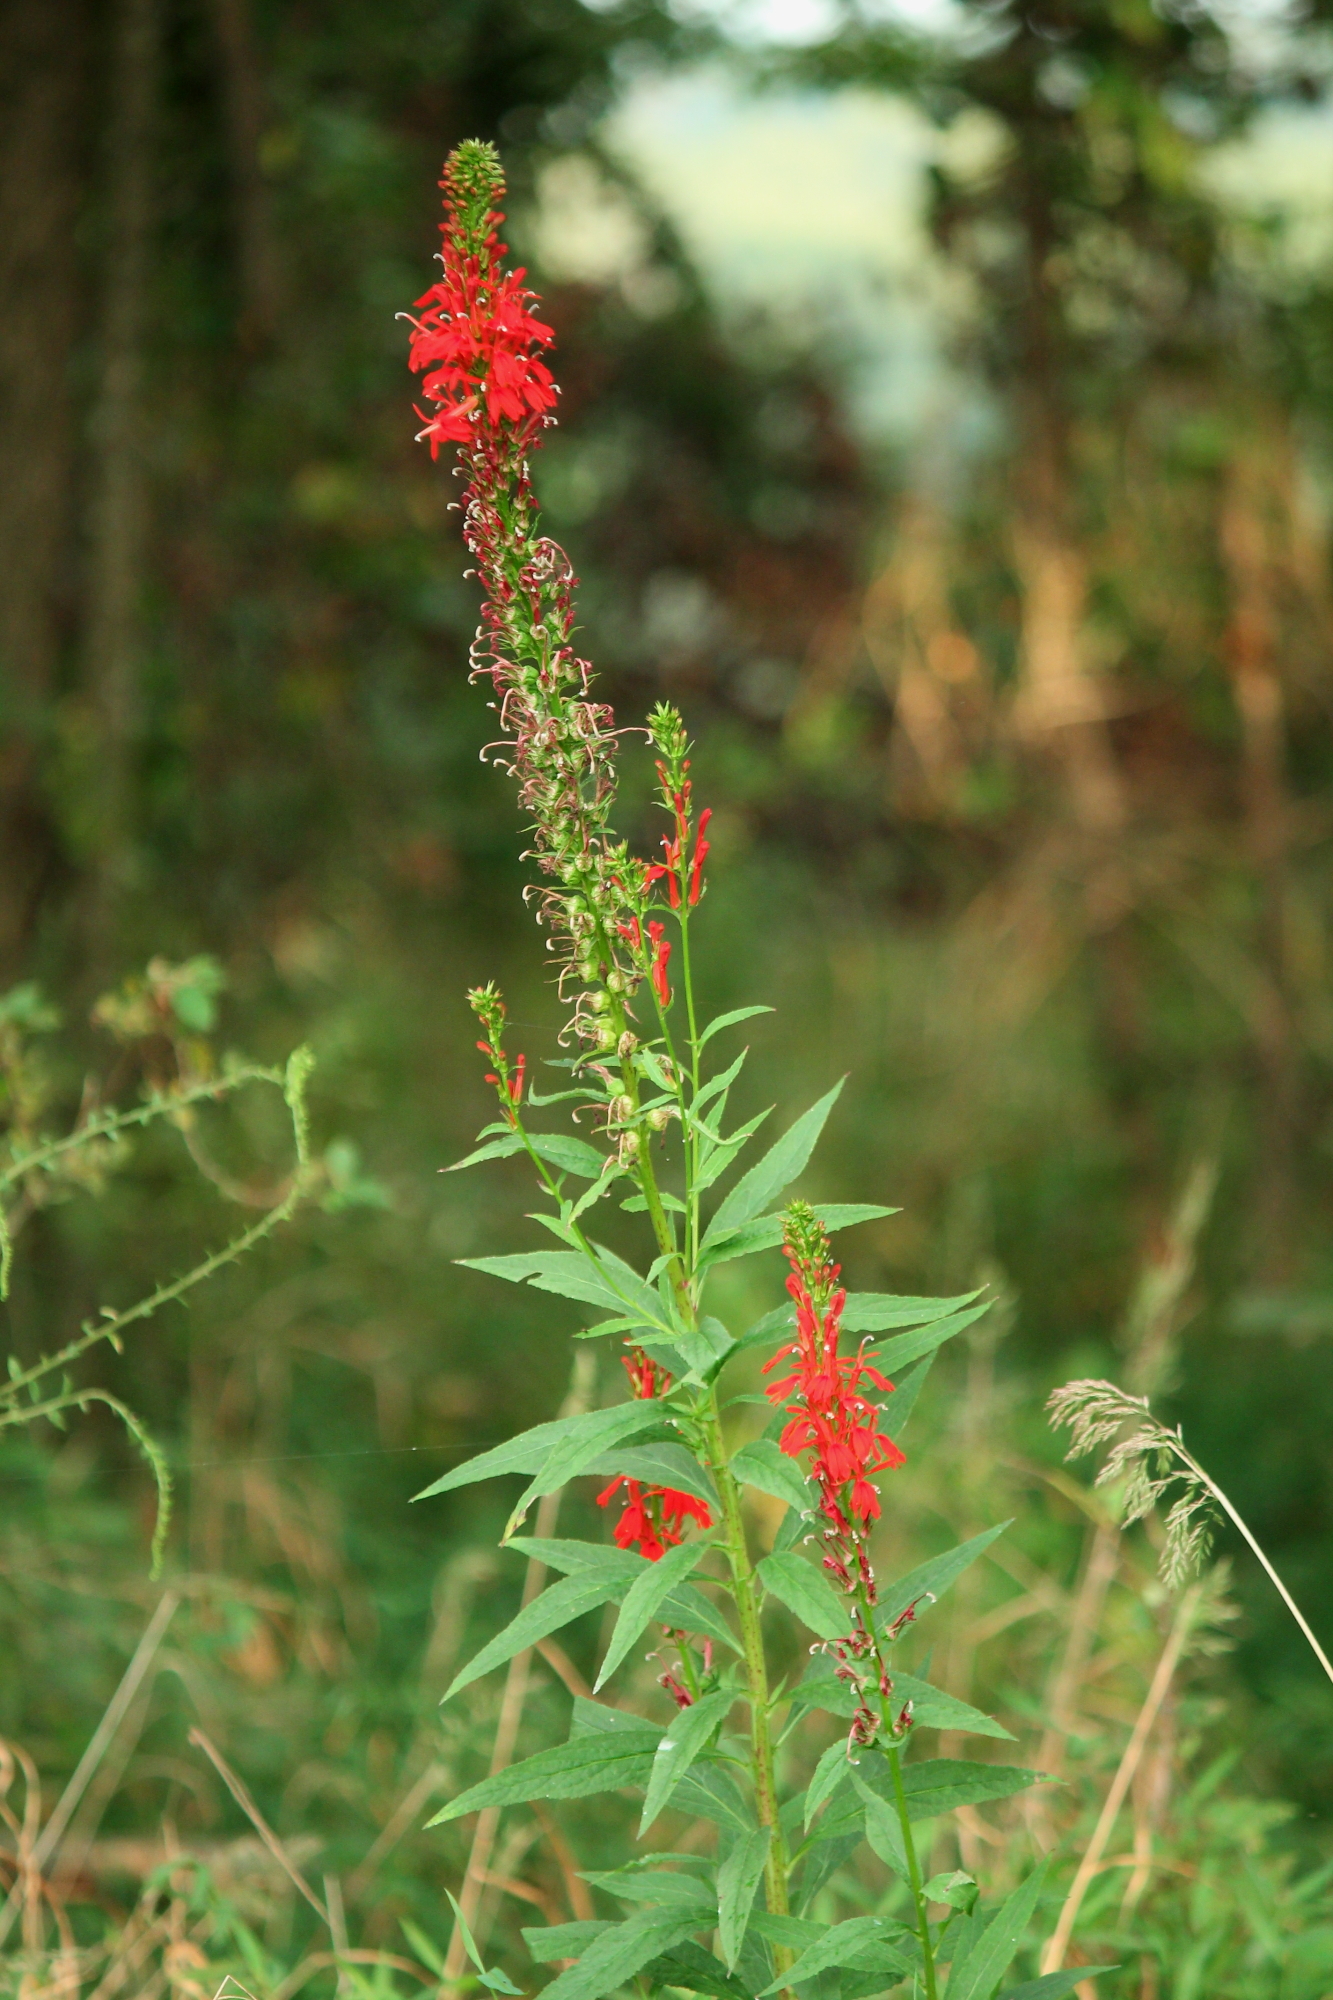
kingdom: Plantae
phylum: Tracheophyta
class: Magnoliopsida
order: Asterales
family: Campanulaceae
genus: Lobelia
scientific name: Lobelia cardinalis
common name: Cardinal flower
